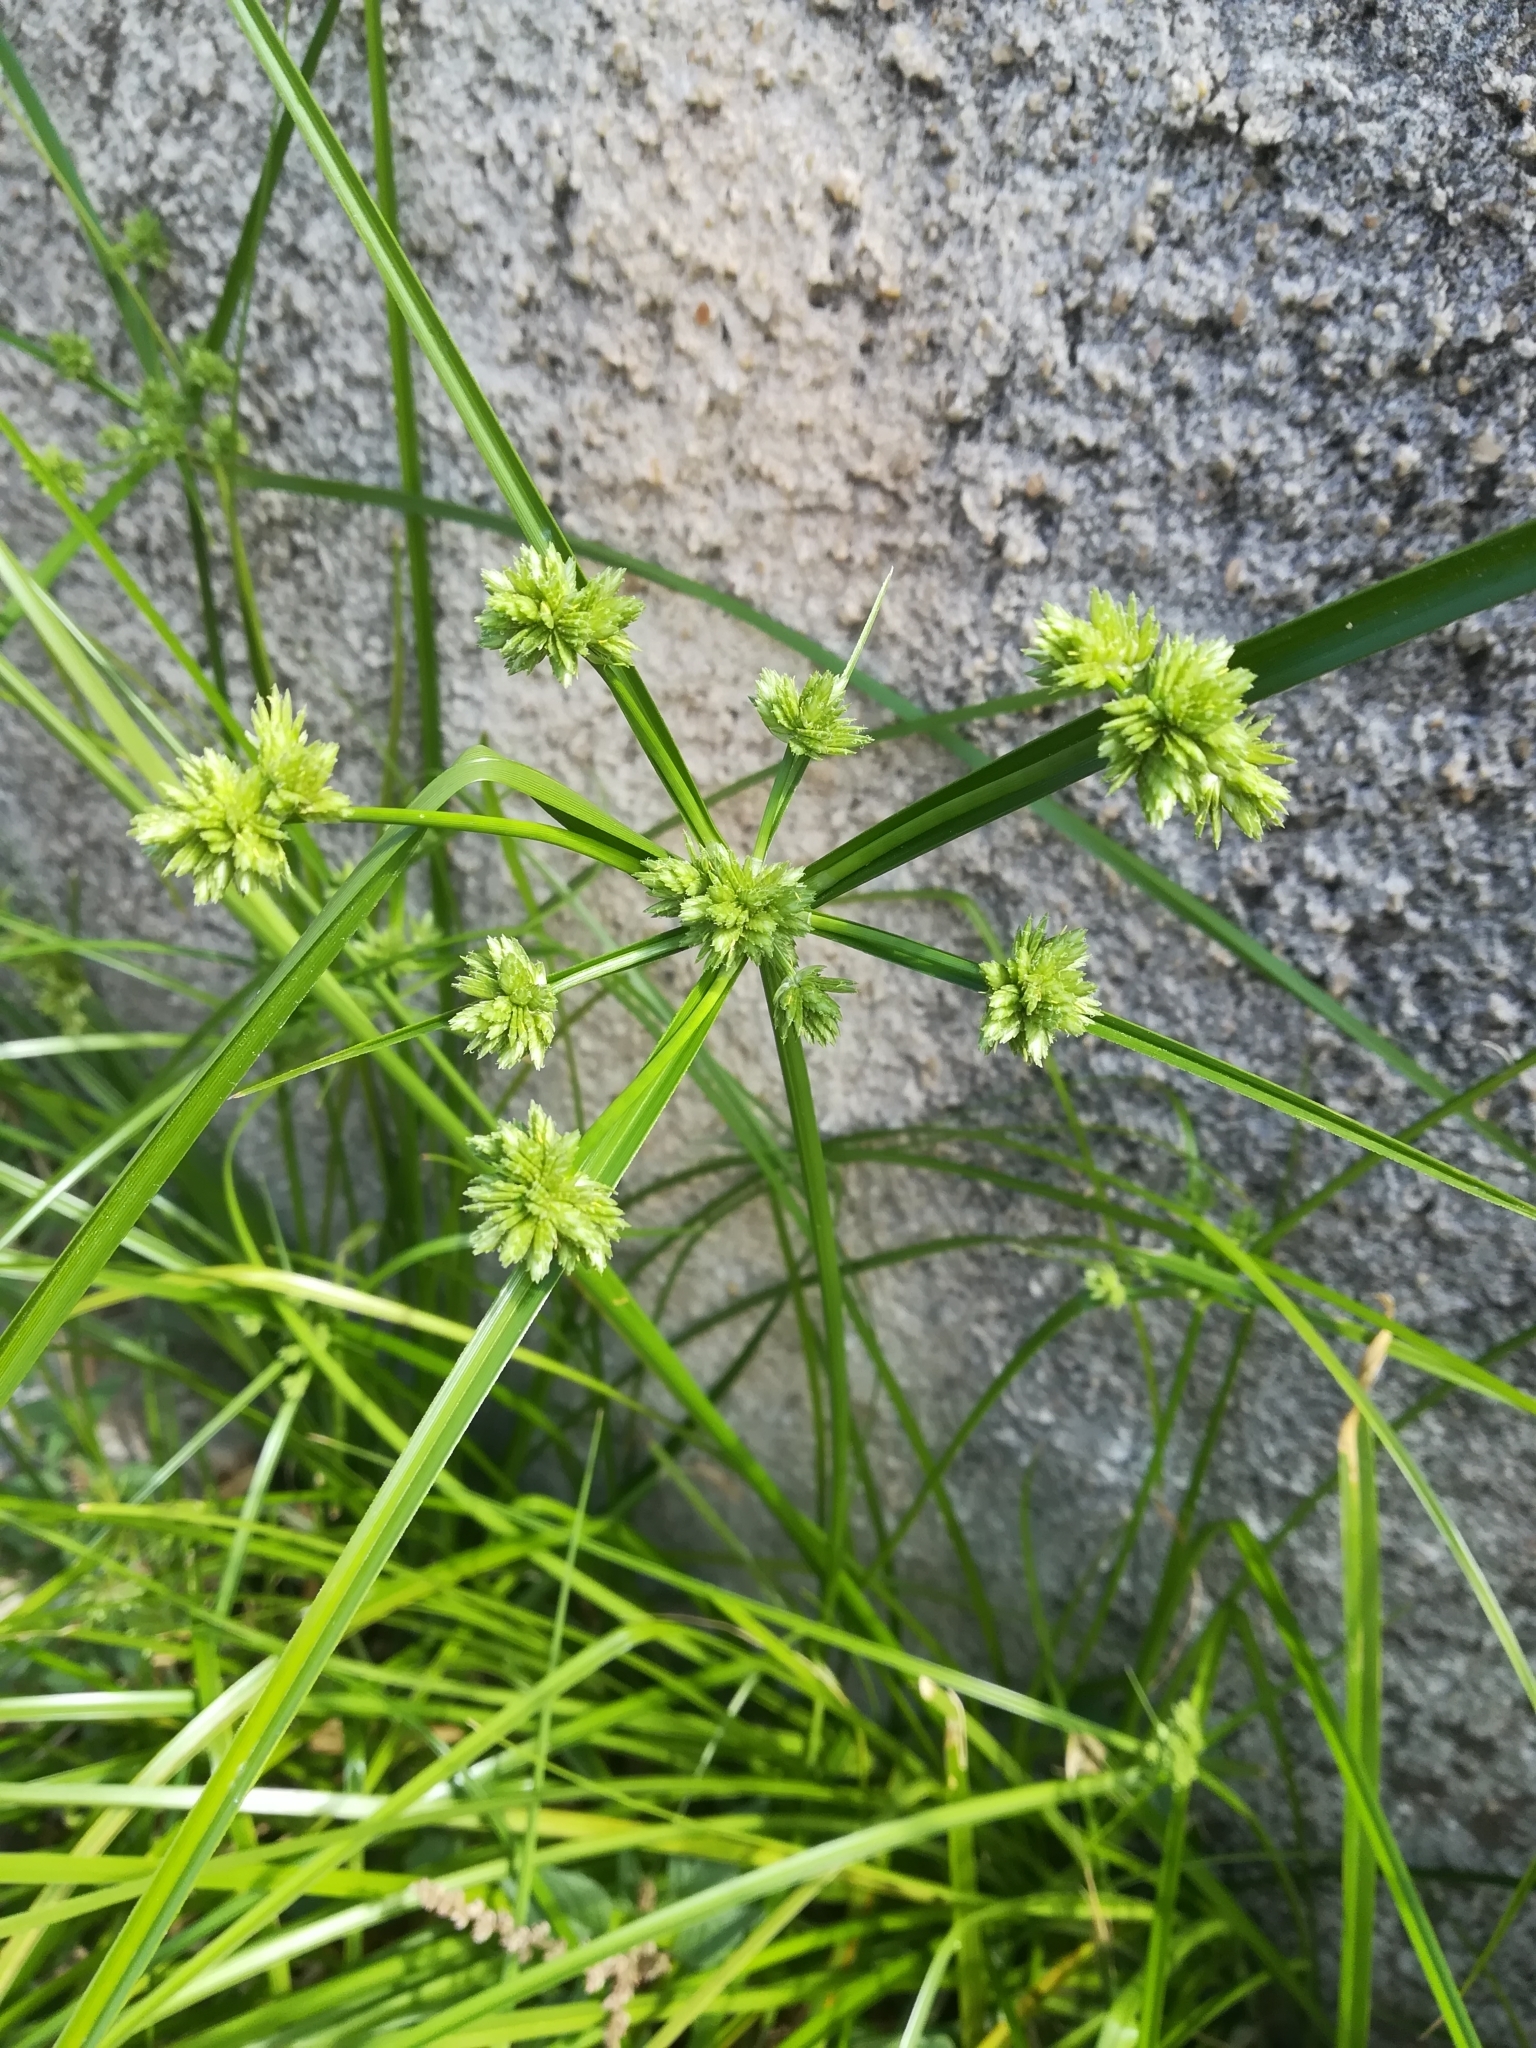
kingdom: Plantae
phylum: Tracheophyta
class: Liliopsida
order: Poales
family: Cyperaceae
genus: Cyperus
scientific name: Cyperus eragrostis
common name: Tall flatsedge
